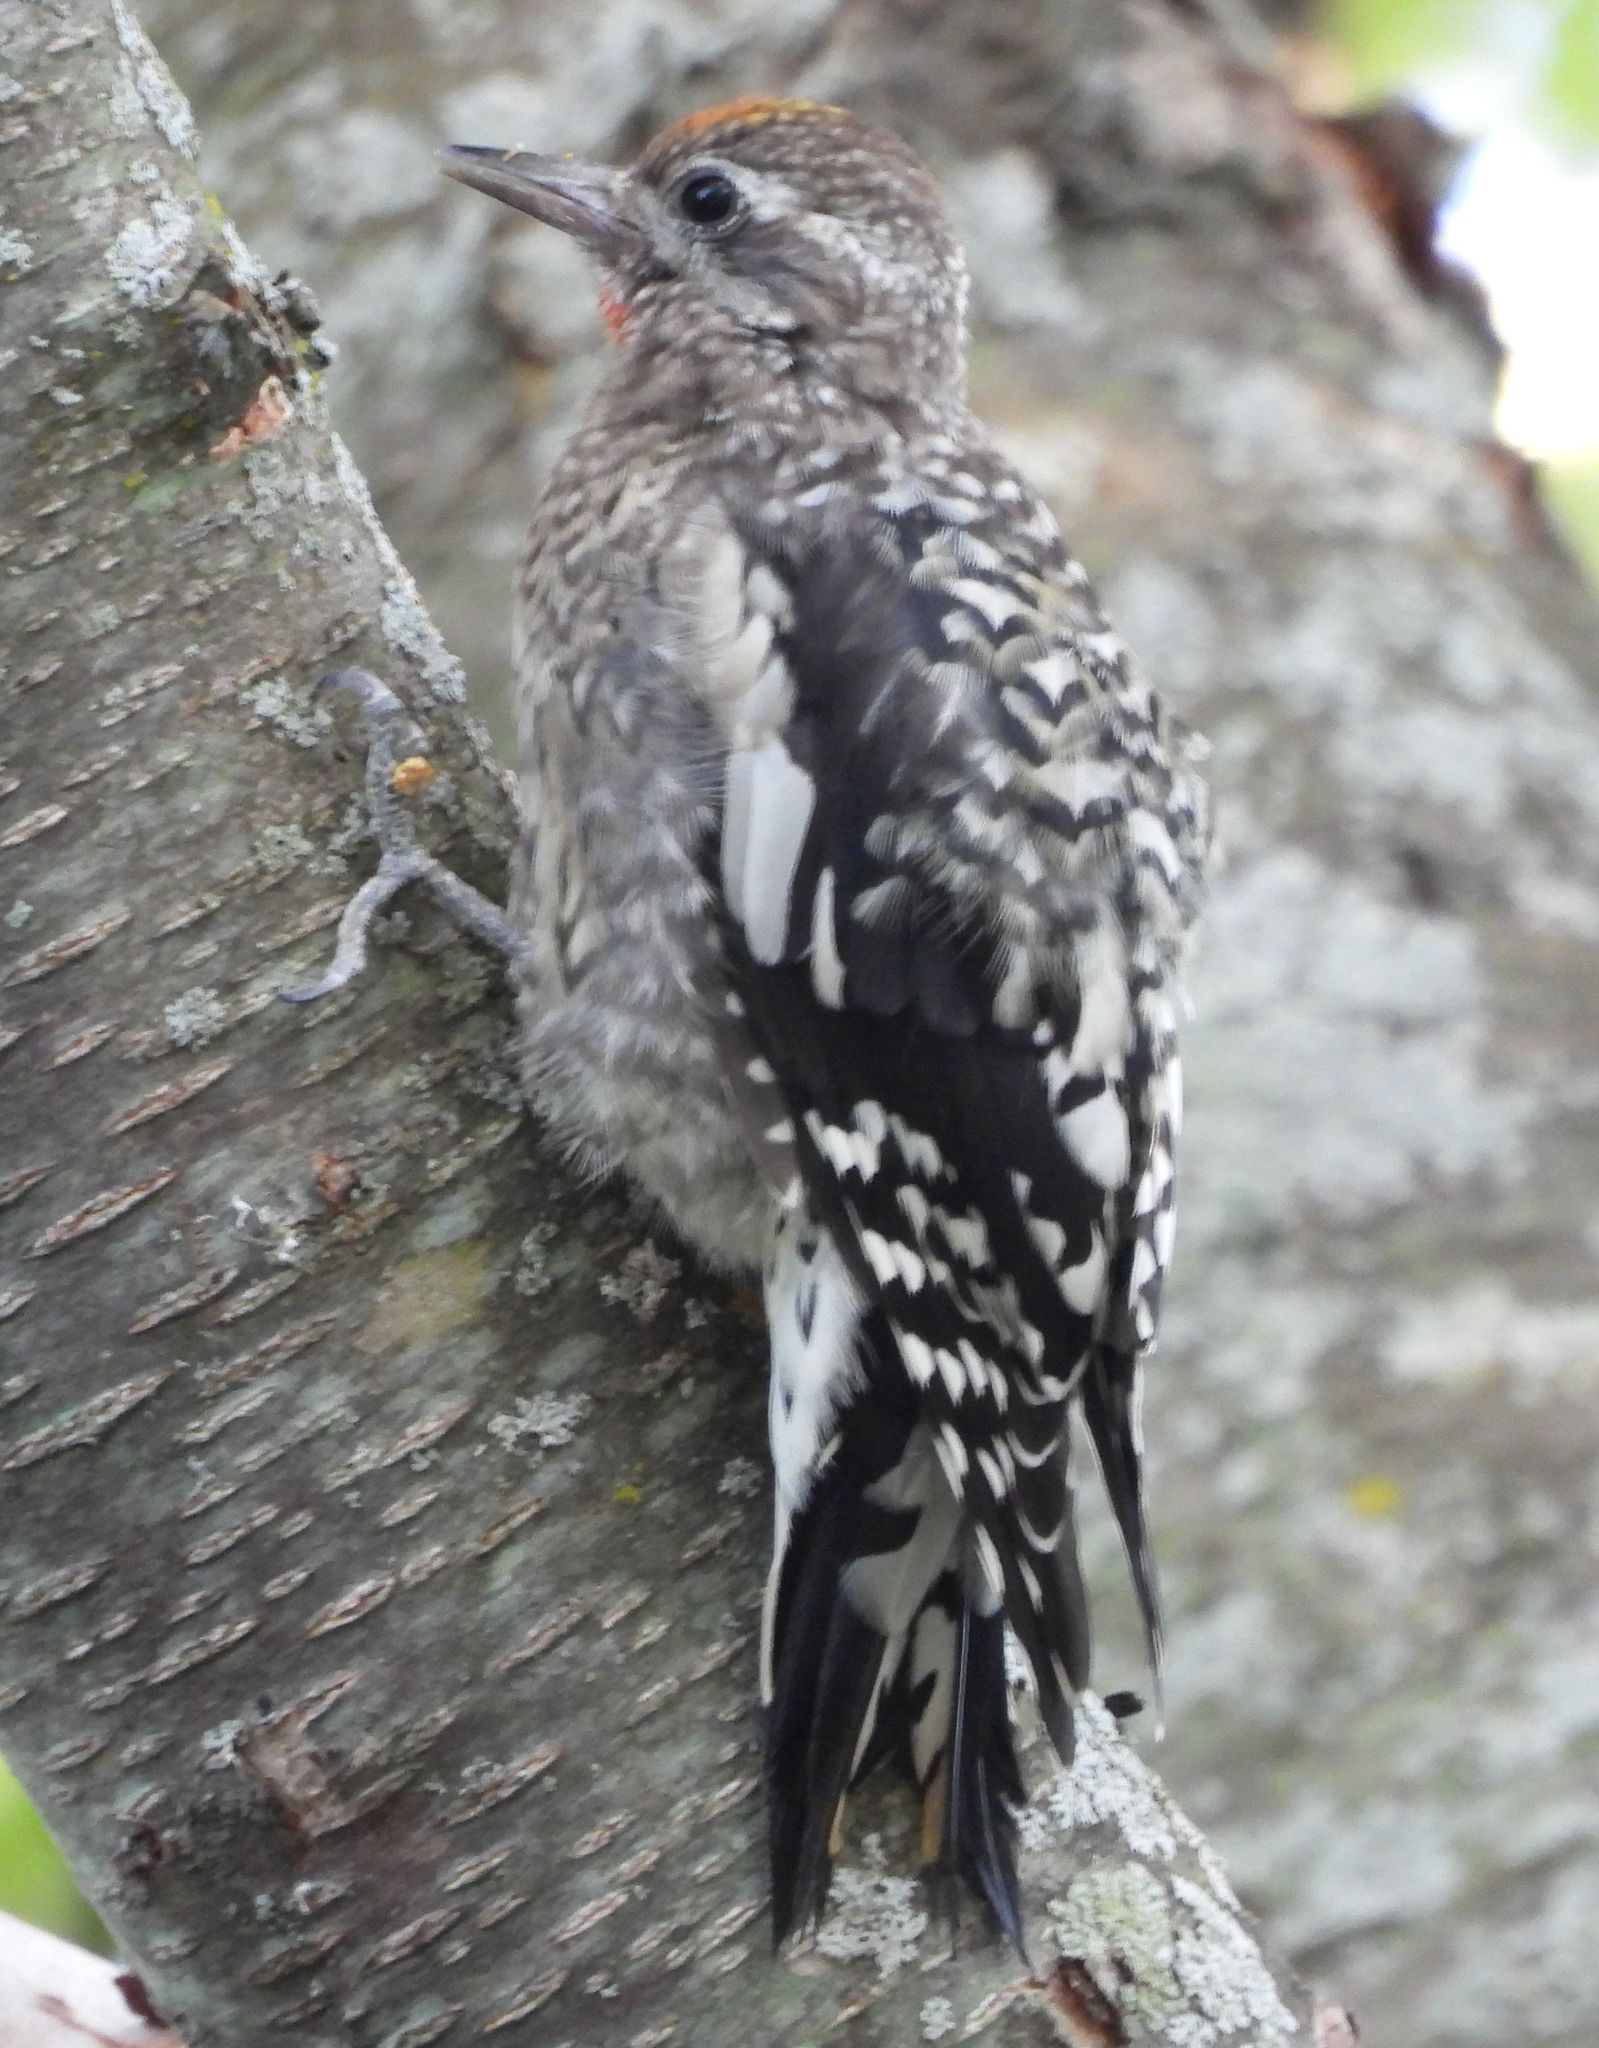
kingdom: Animalia
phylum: Chordata
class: Aves
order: Piciformes
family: Picidae
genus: Sphyrapicus
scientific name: Sphyrapicus varius
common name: Yellow-bellied sapsucker
